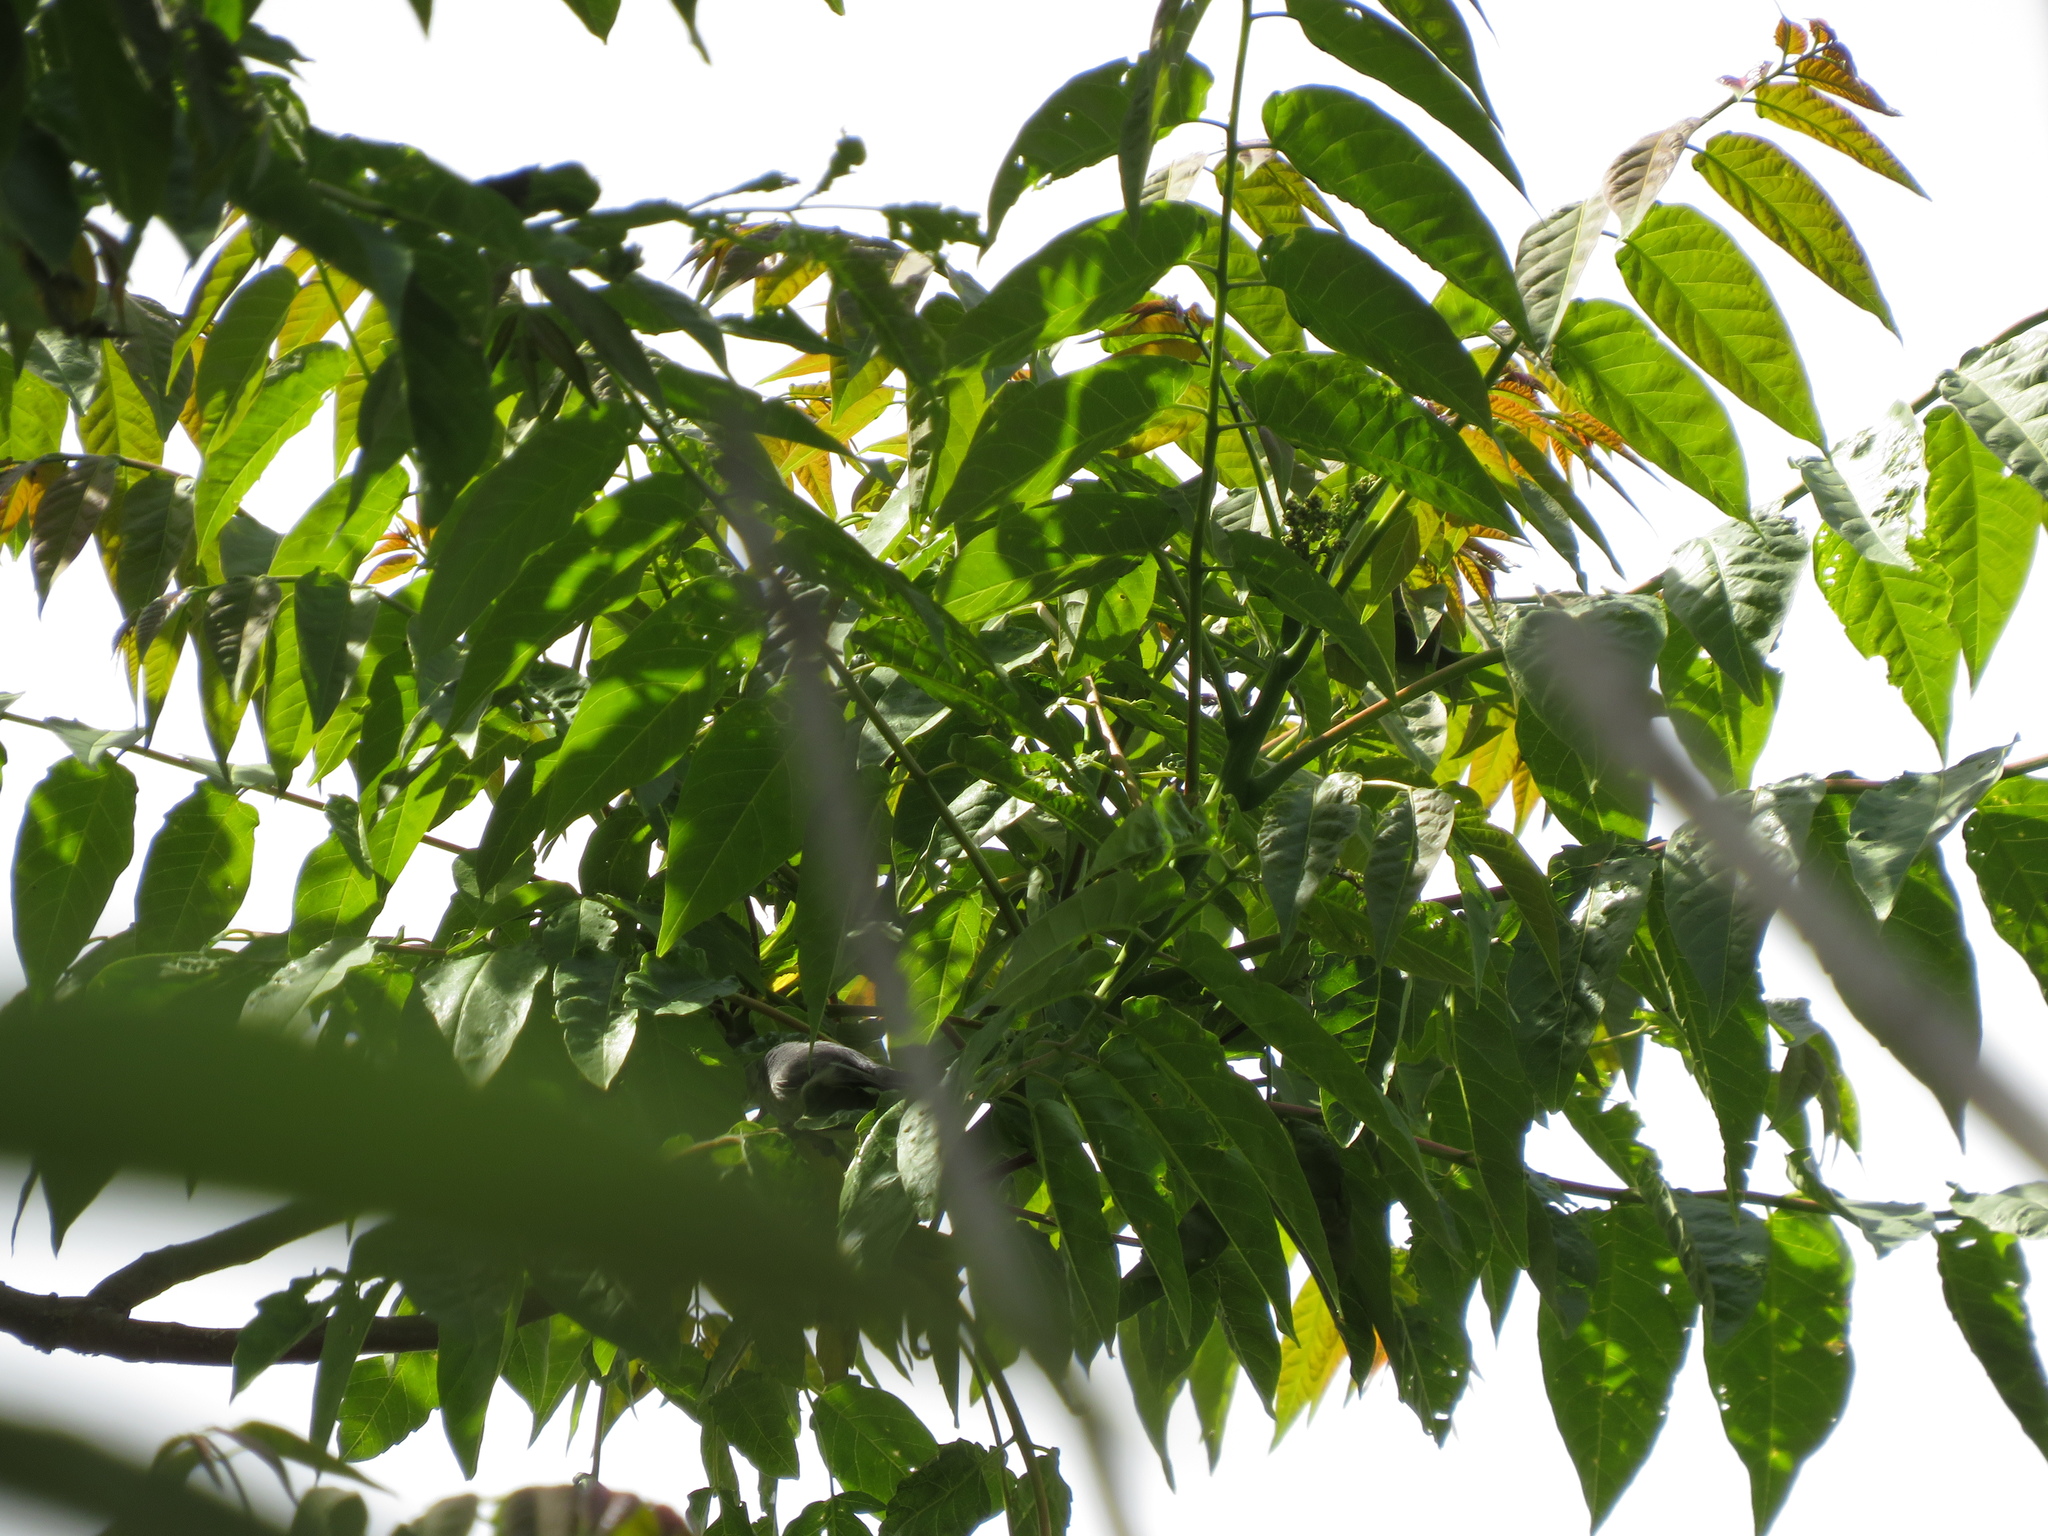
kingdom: Plantae
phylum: Tracheophyta
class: Magnoliopsida
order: Sapindales
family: Simaroubaceae
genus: Ailanthus
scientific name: Ailanthus altissima
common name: Tree-of-heaven
